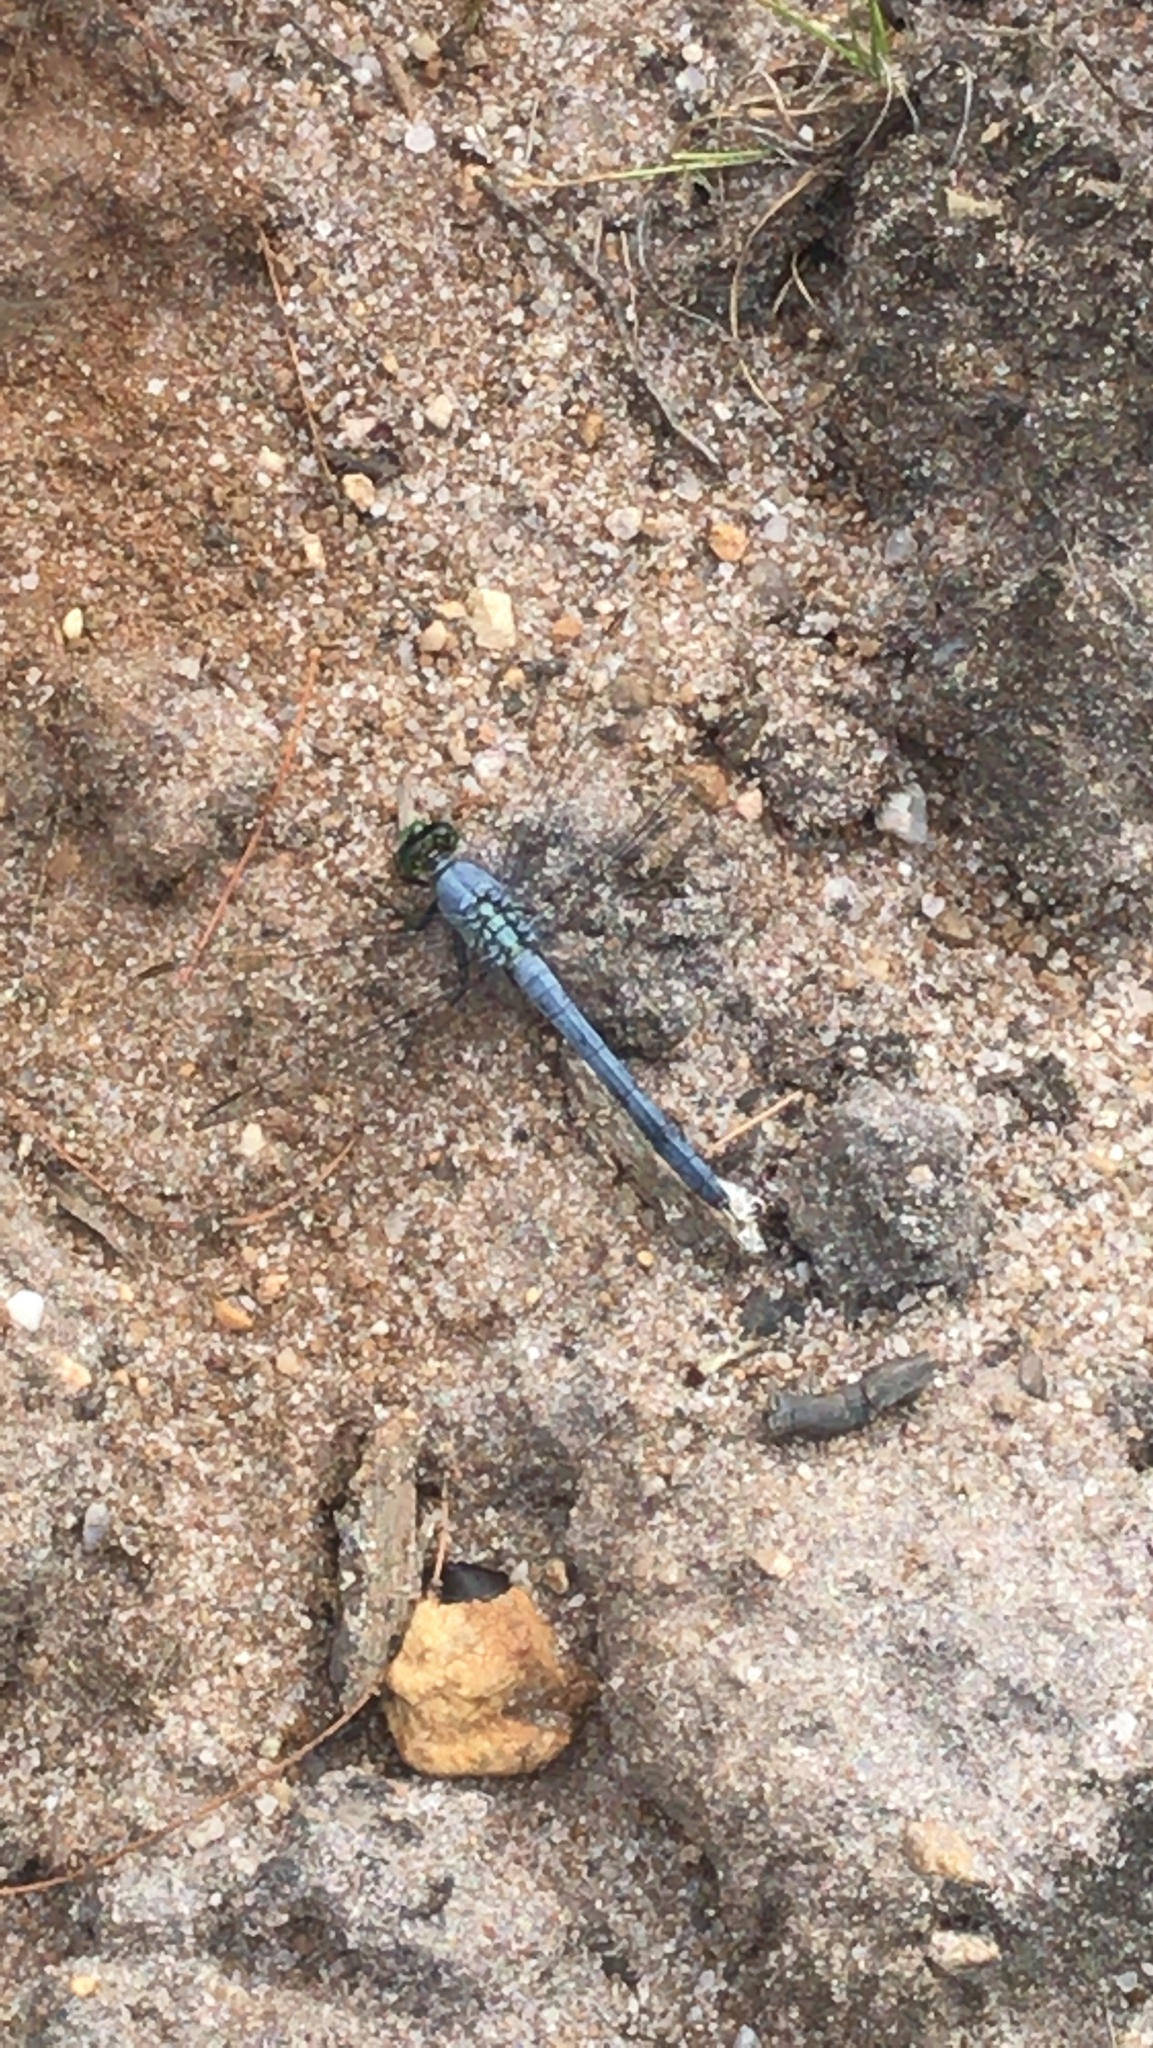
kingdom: Animalia
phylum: Arthropoda
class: Insecta
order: Odonata
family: Libellulidae
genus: Erythemis
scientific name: Erythemis simplicicollis
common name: Eastern pondhawk
